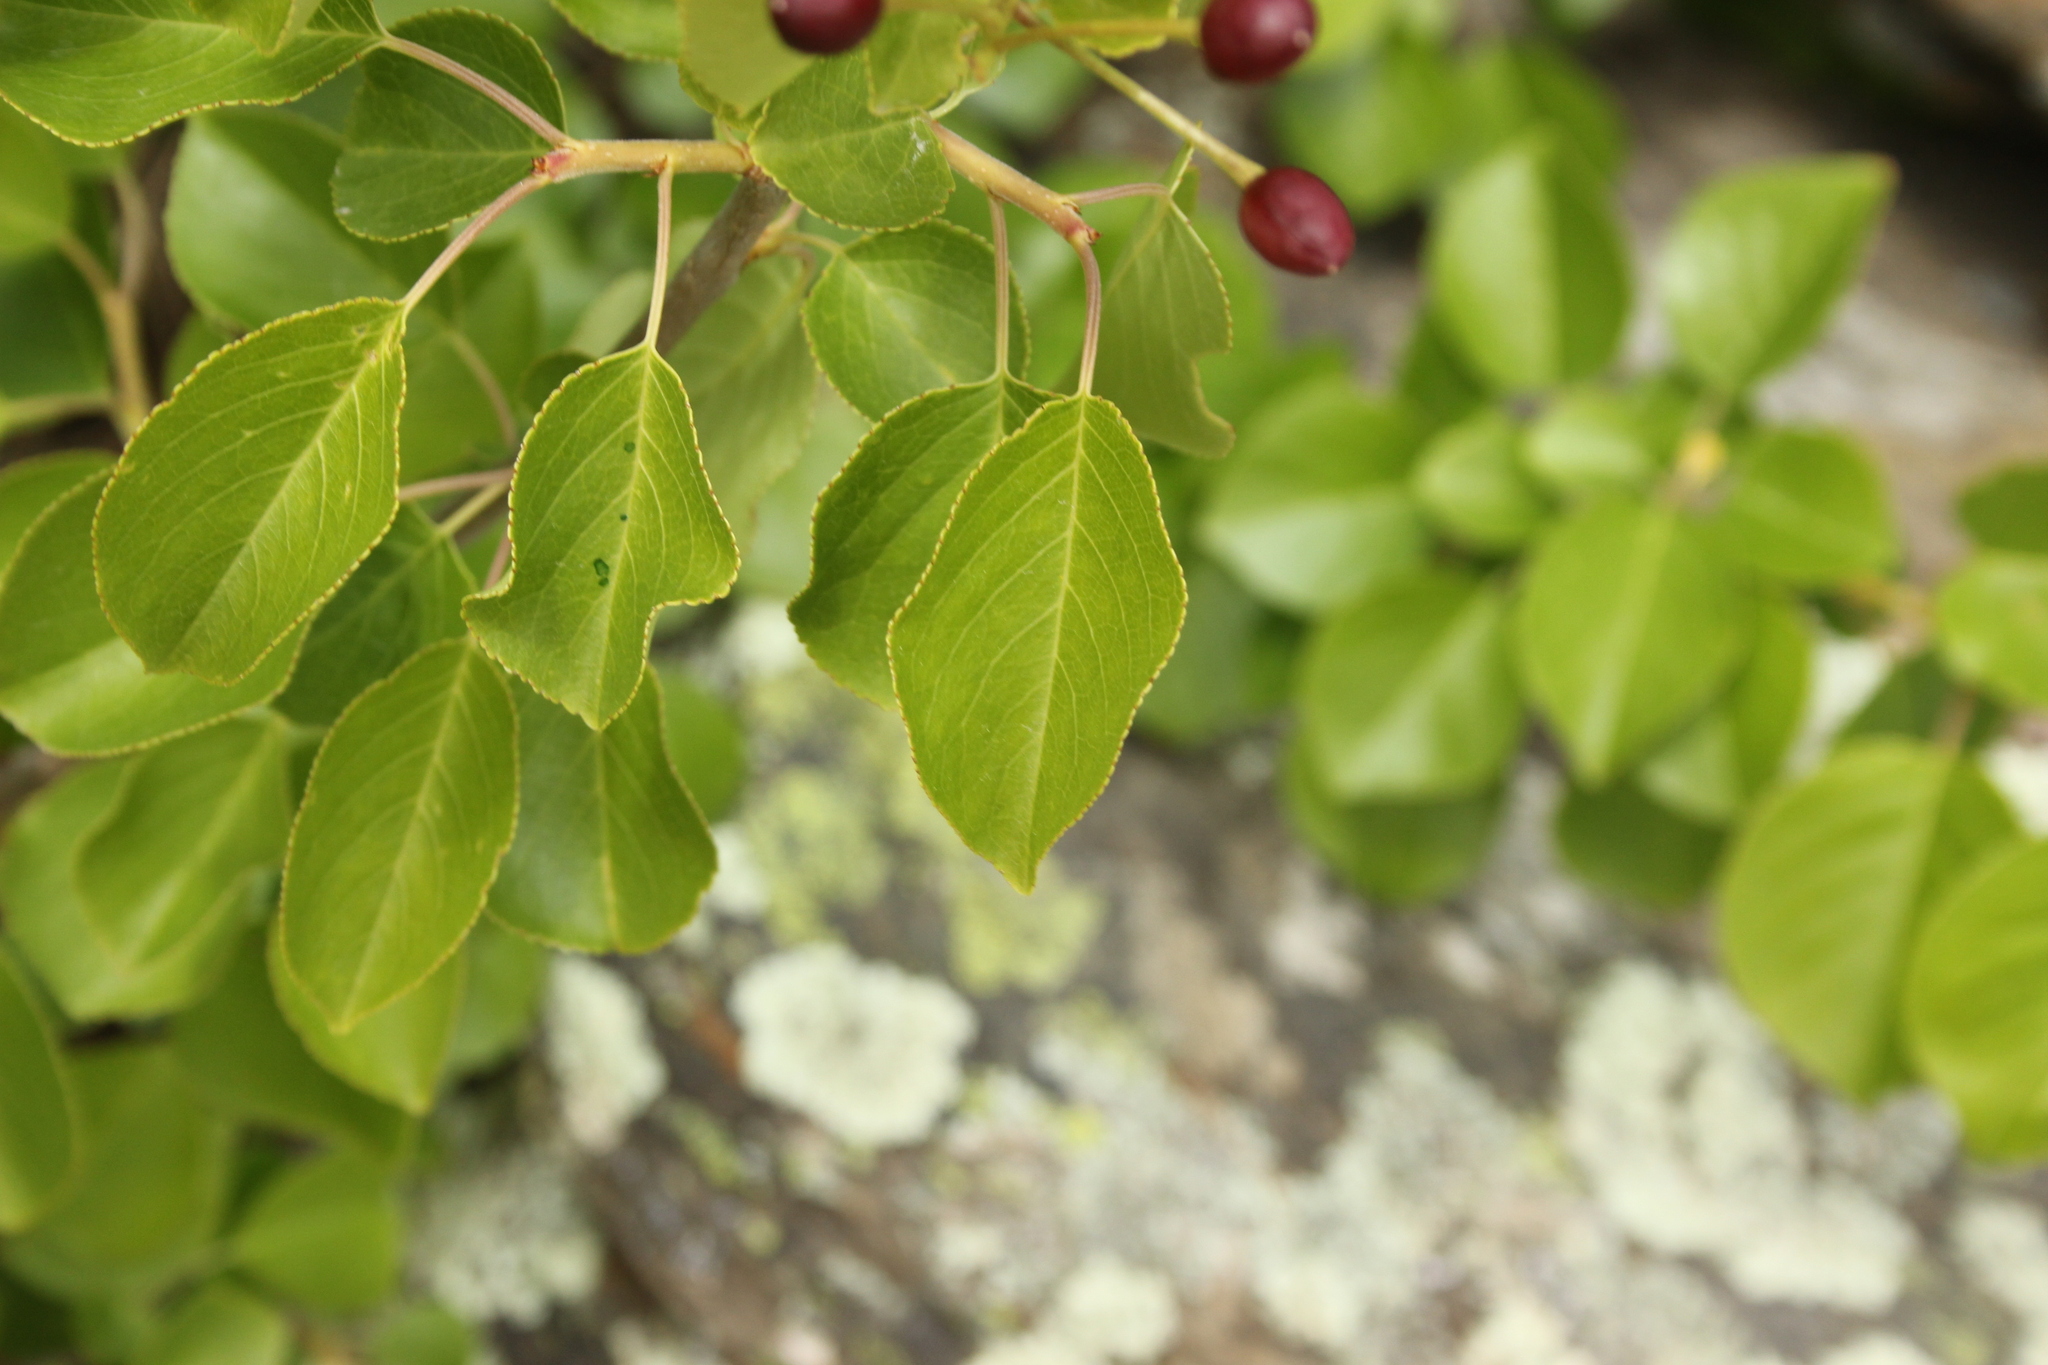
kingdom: Plantae
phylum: Tracheophyta
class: Magnoliopsida
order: Rosales
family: Rosaceae
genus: Prunus
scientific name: Prunus avium
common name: Sweet cherry
